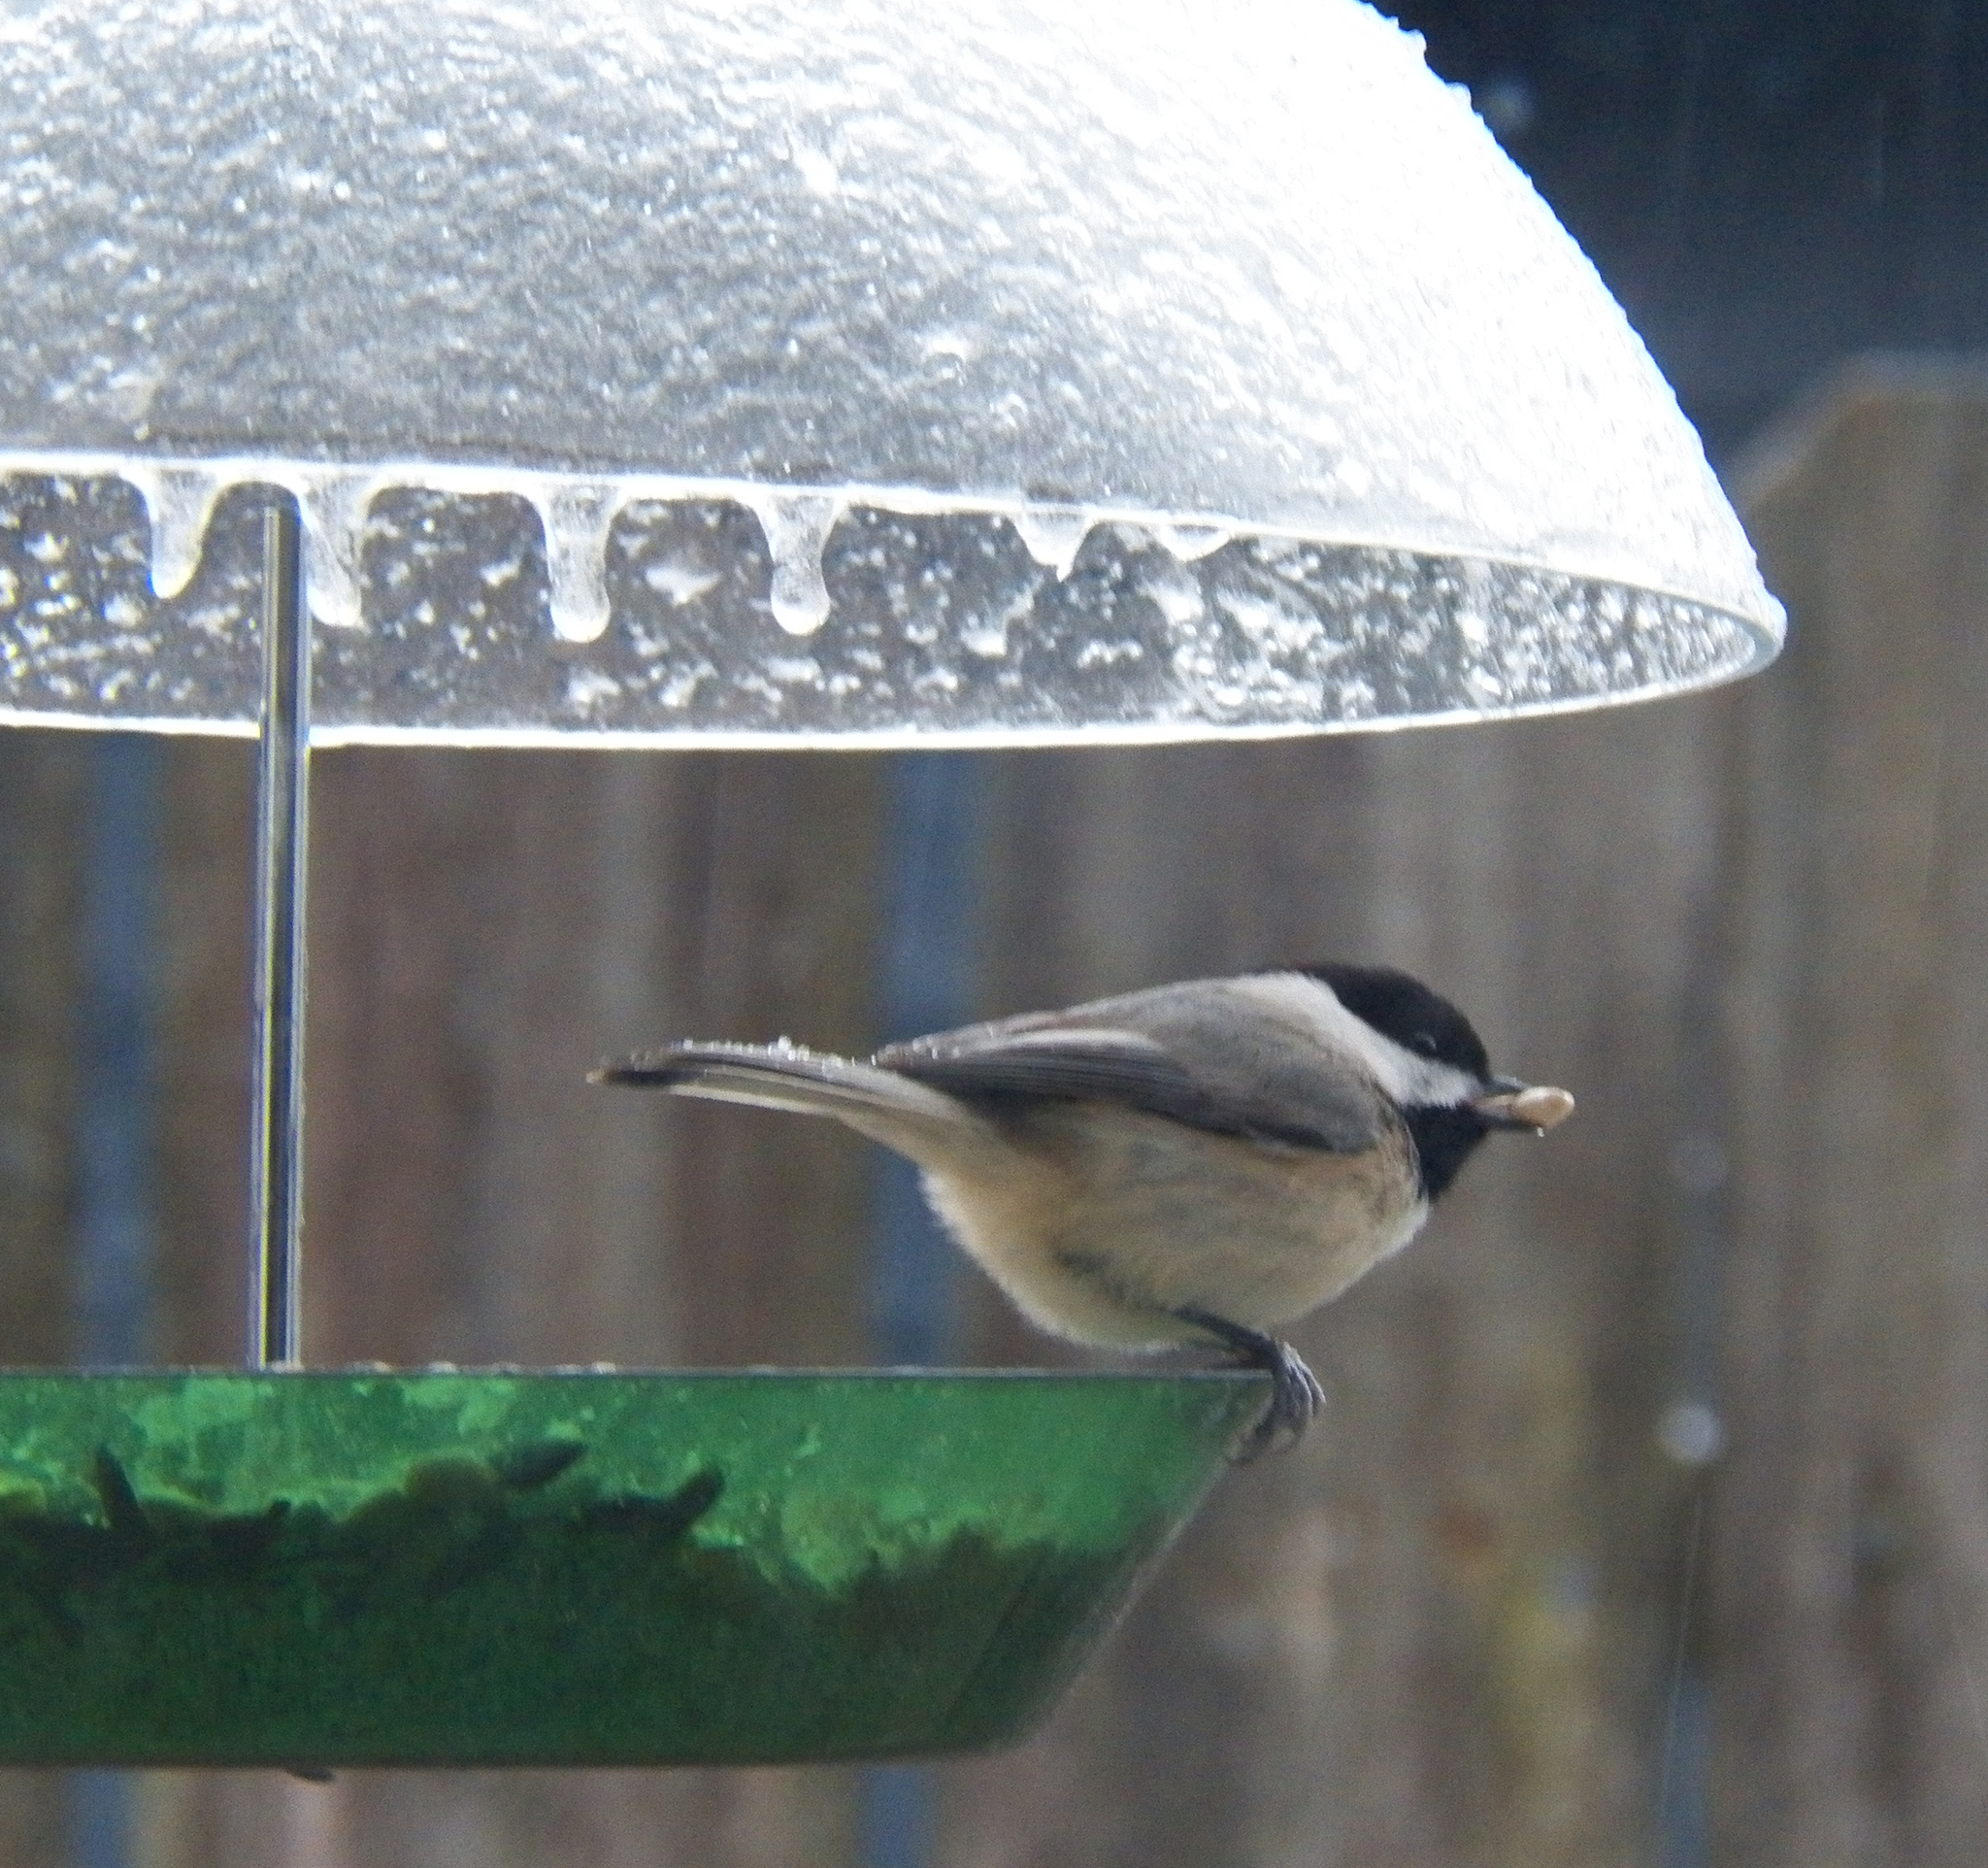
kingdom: Animalia
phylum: Chordata
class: Aves
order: Passeriformes
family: Paridae
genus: Poecile
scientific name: Poecile carolinensis
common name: Carolina chickadee
